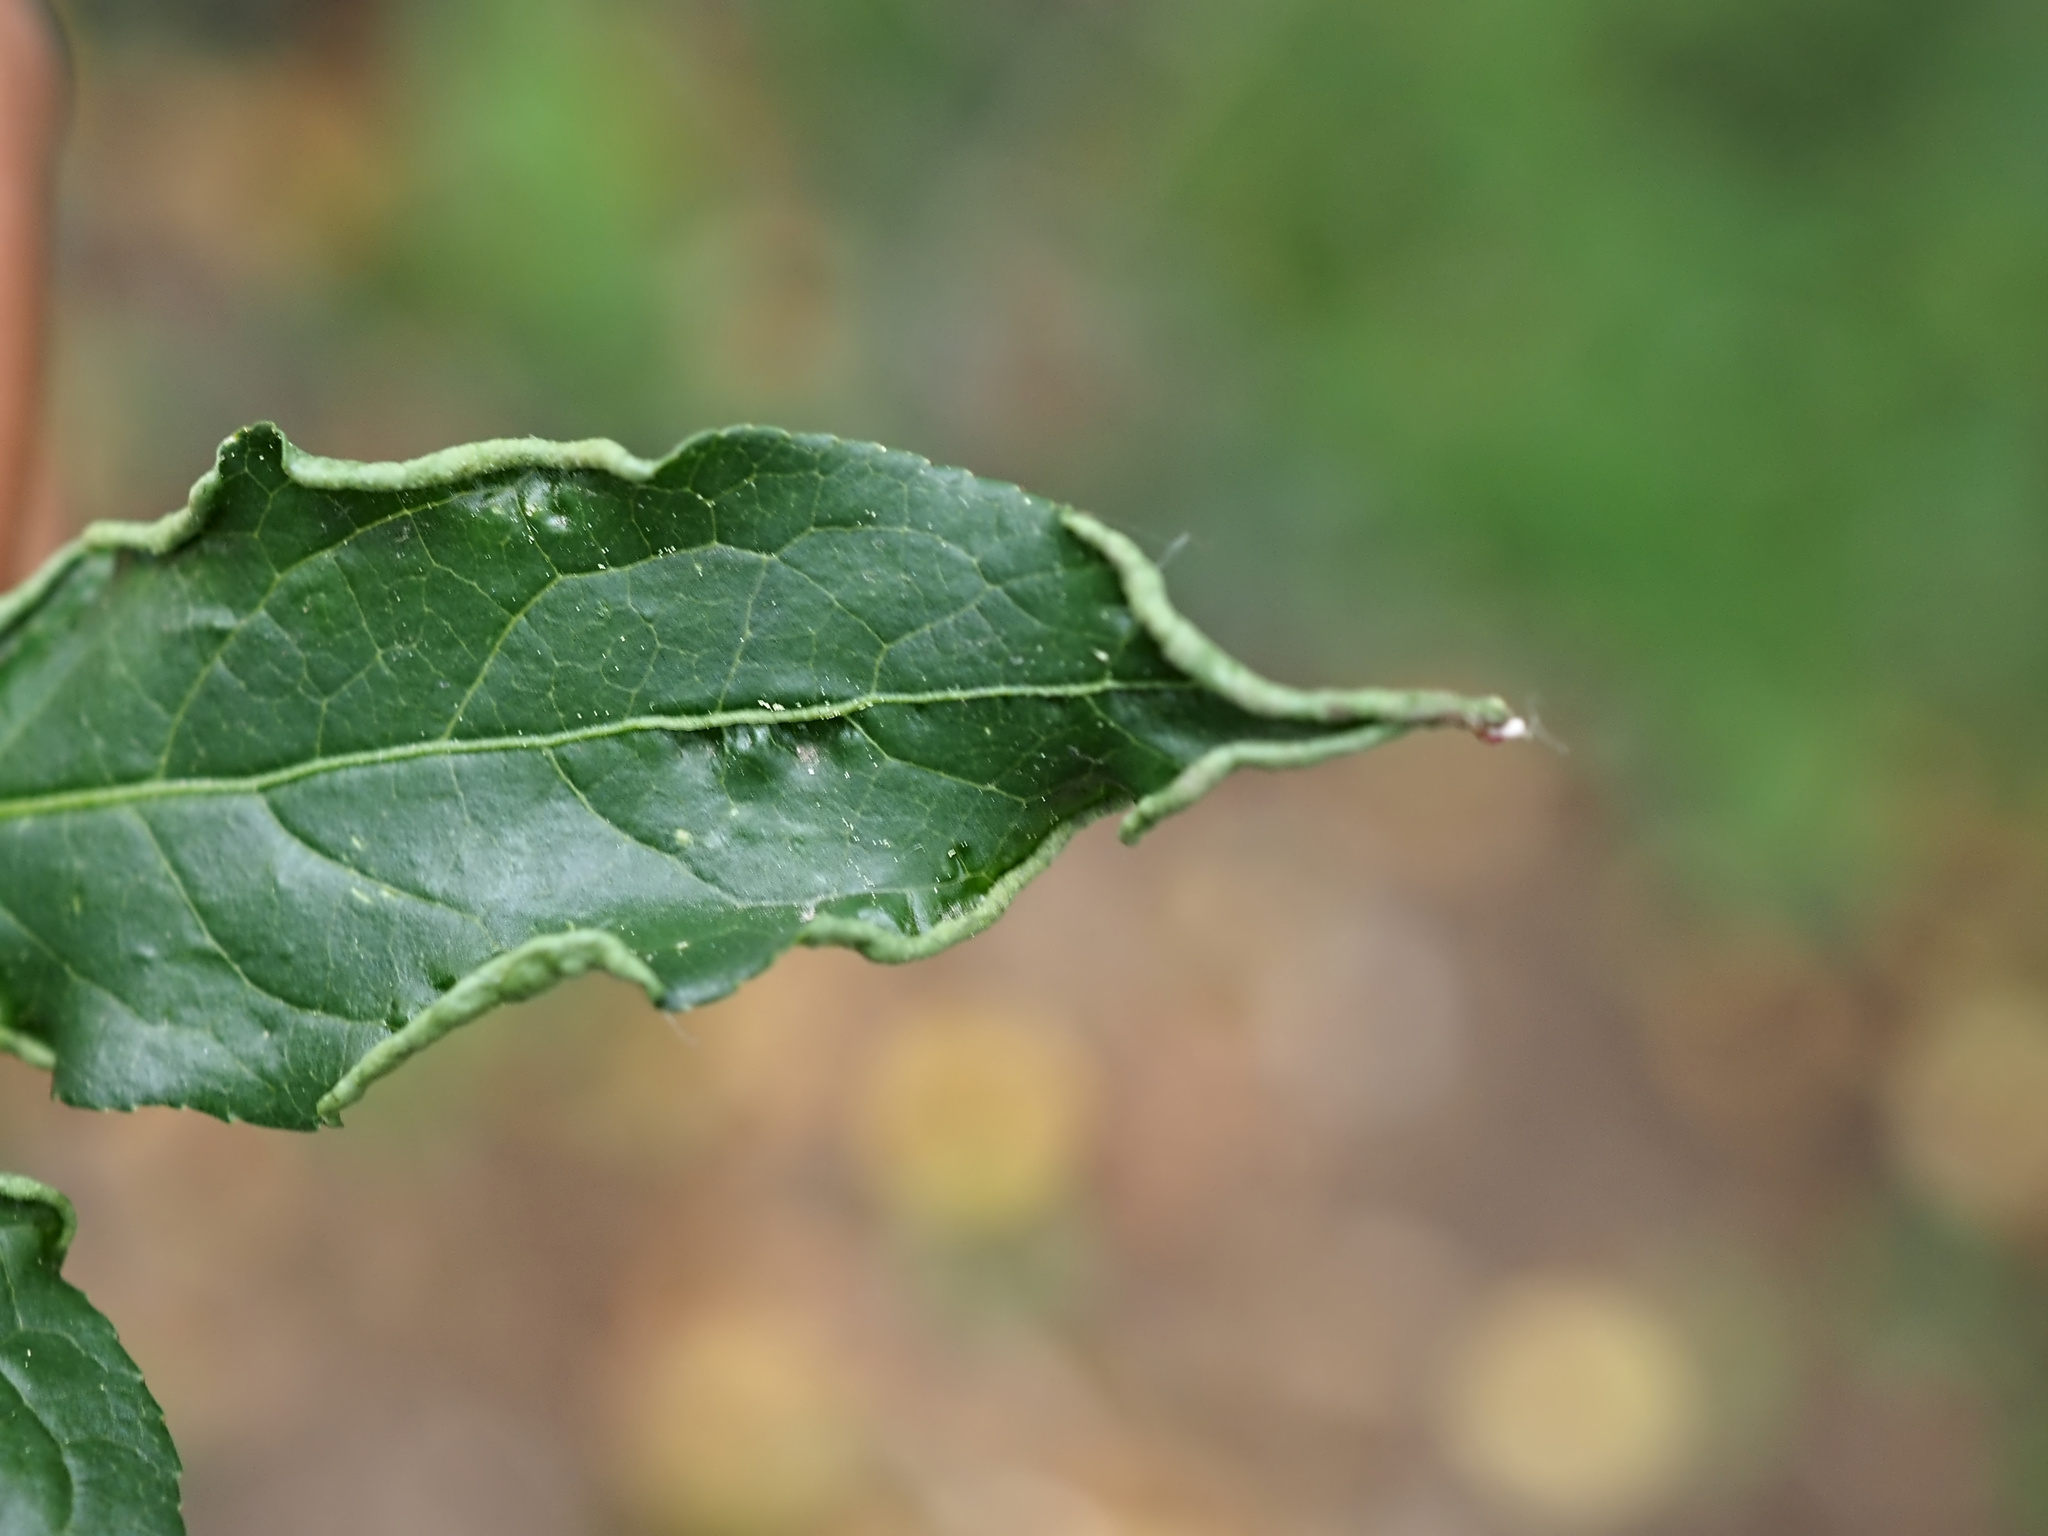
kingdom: Animalia
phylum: Arthropoda
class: Arachnida
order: Trombidiformes
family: Eriophyidae
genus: Stenacis
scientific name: Stenacis evonymi
